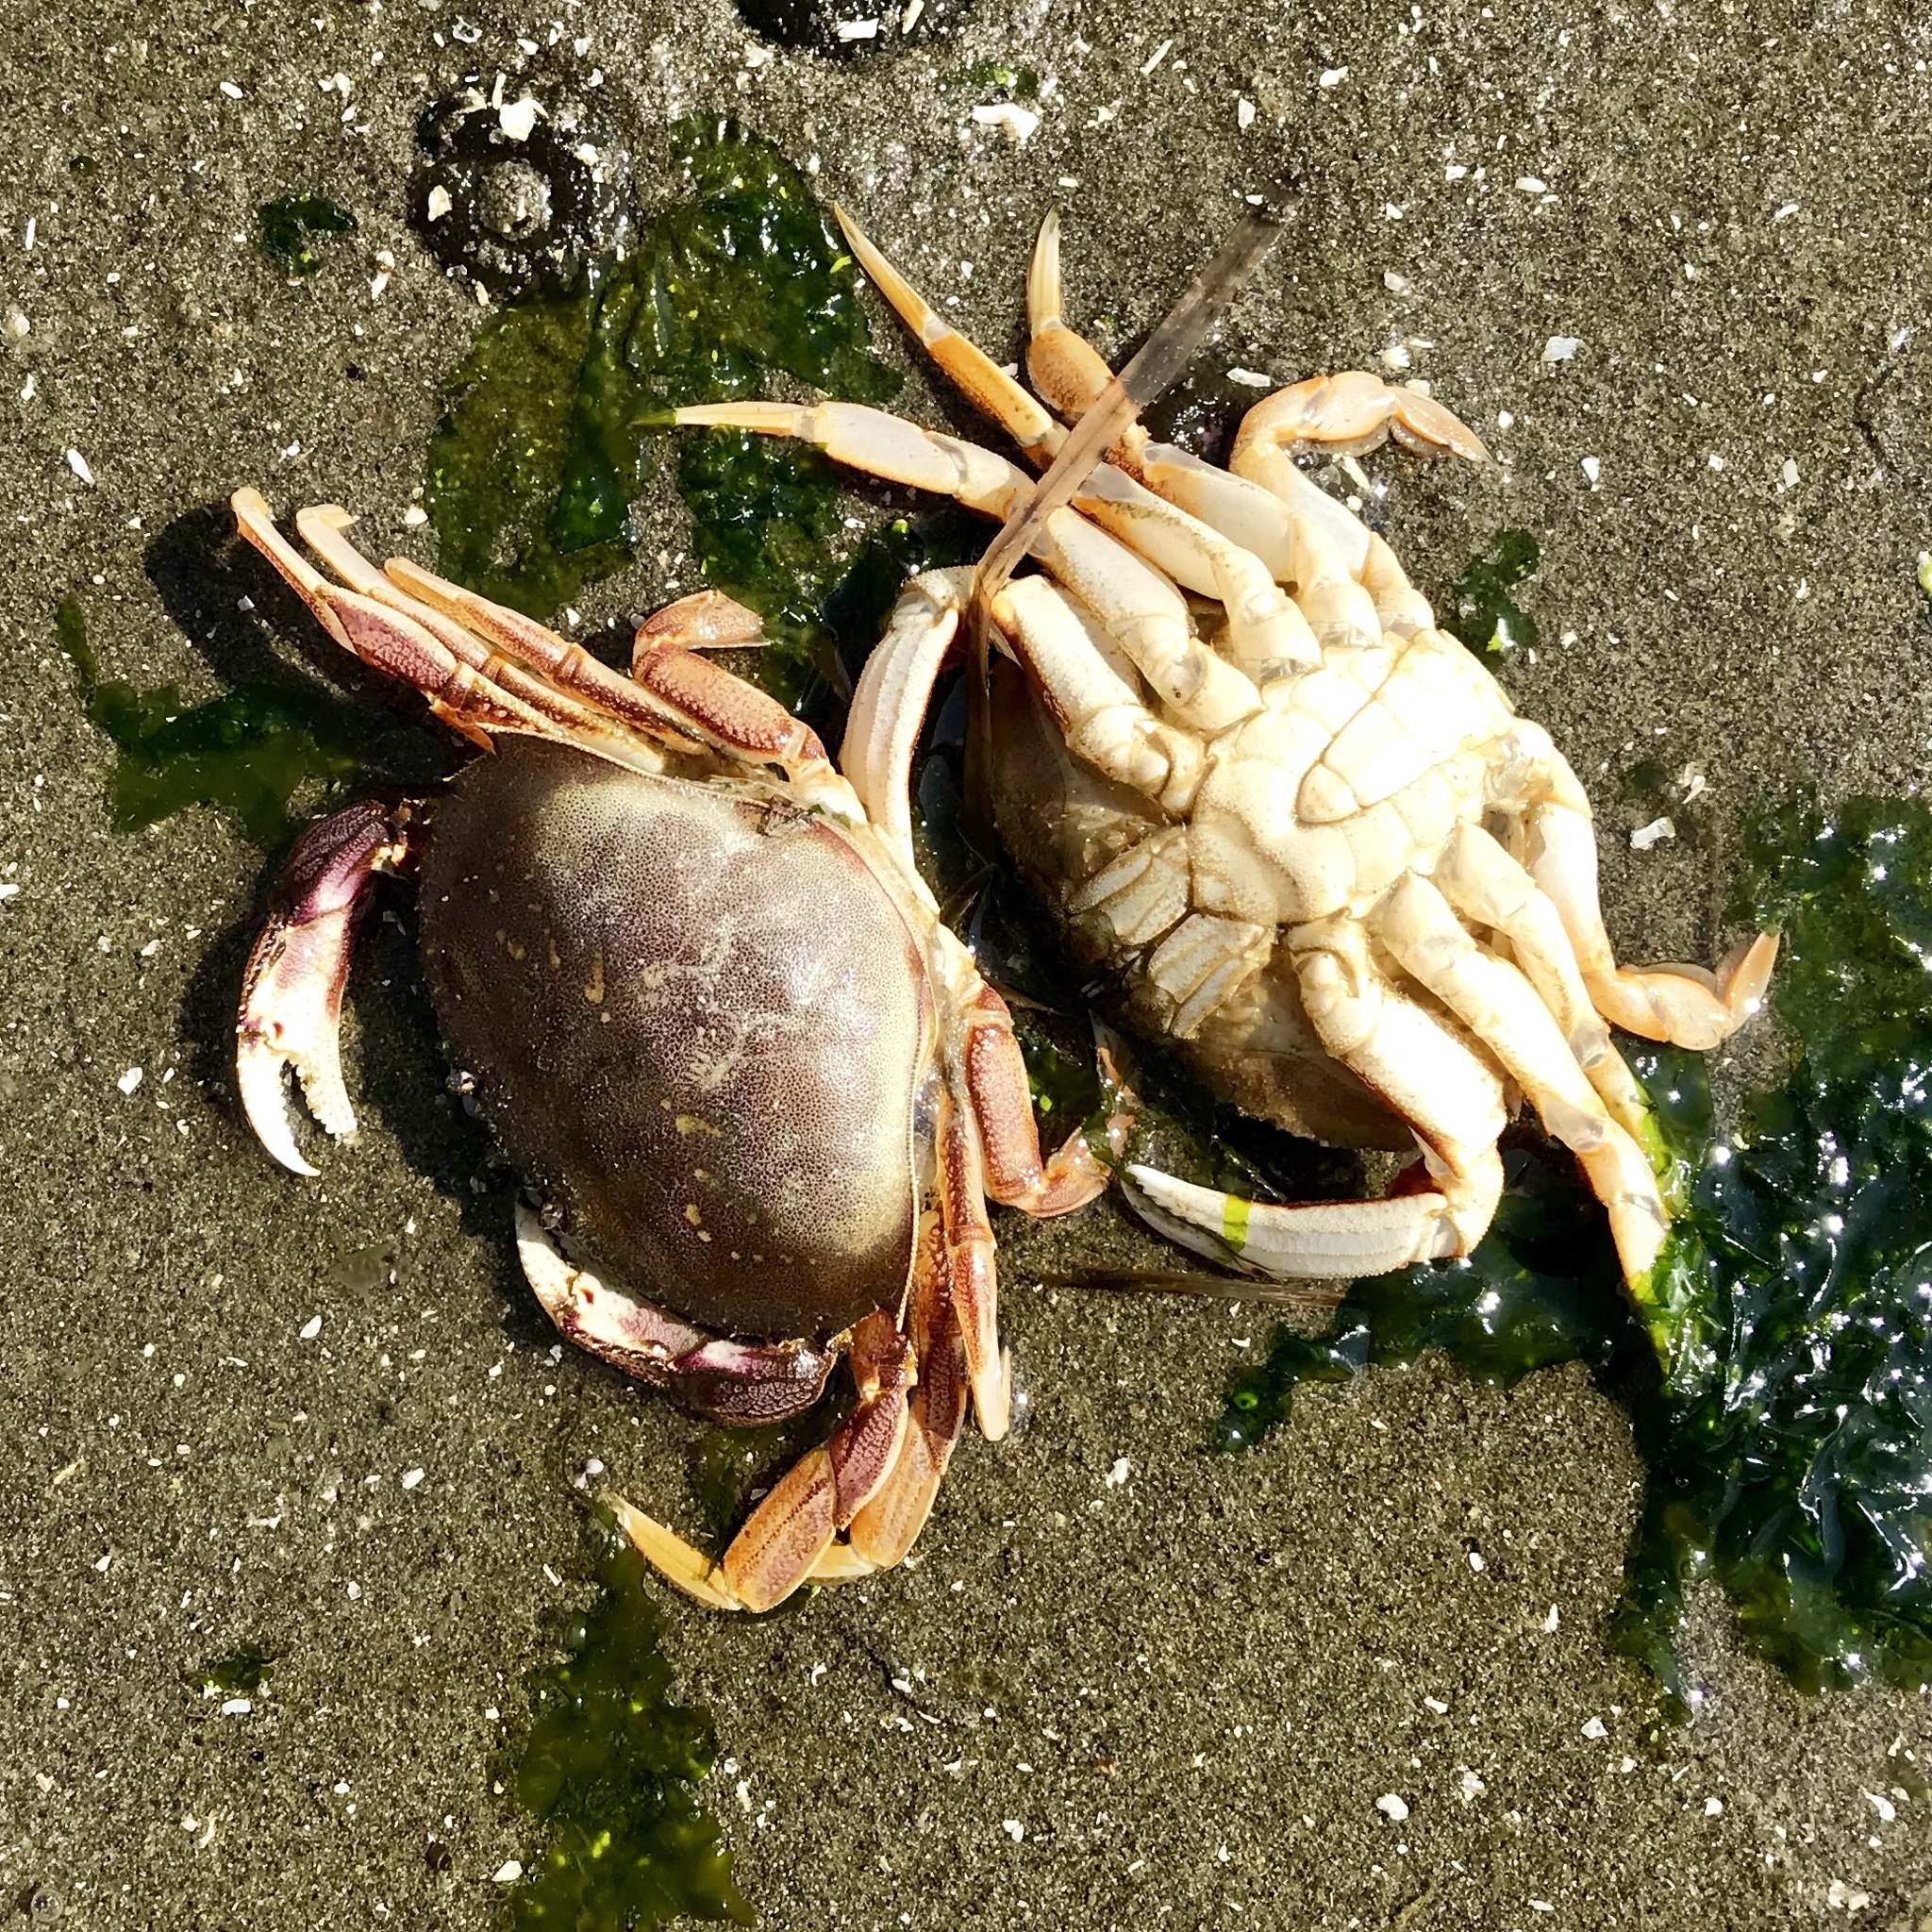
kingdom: Animalia
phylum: Arthropoda
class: Malacostraca
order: Decapoda
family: Cancridae
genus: Metacarcinus
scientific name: Metacarcinus magister
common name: Californian crab
